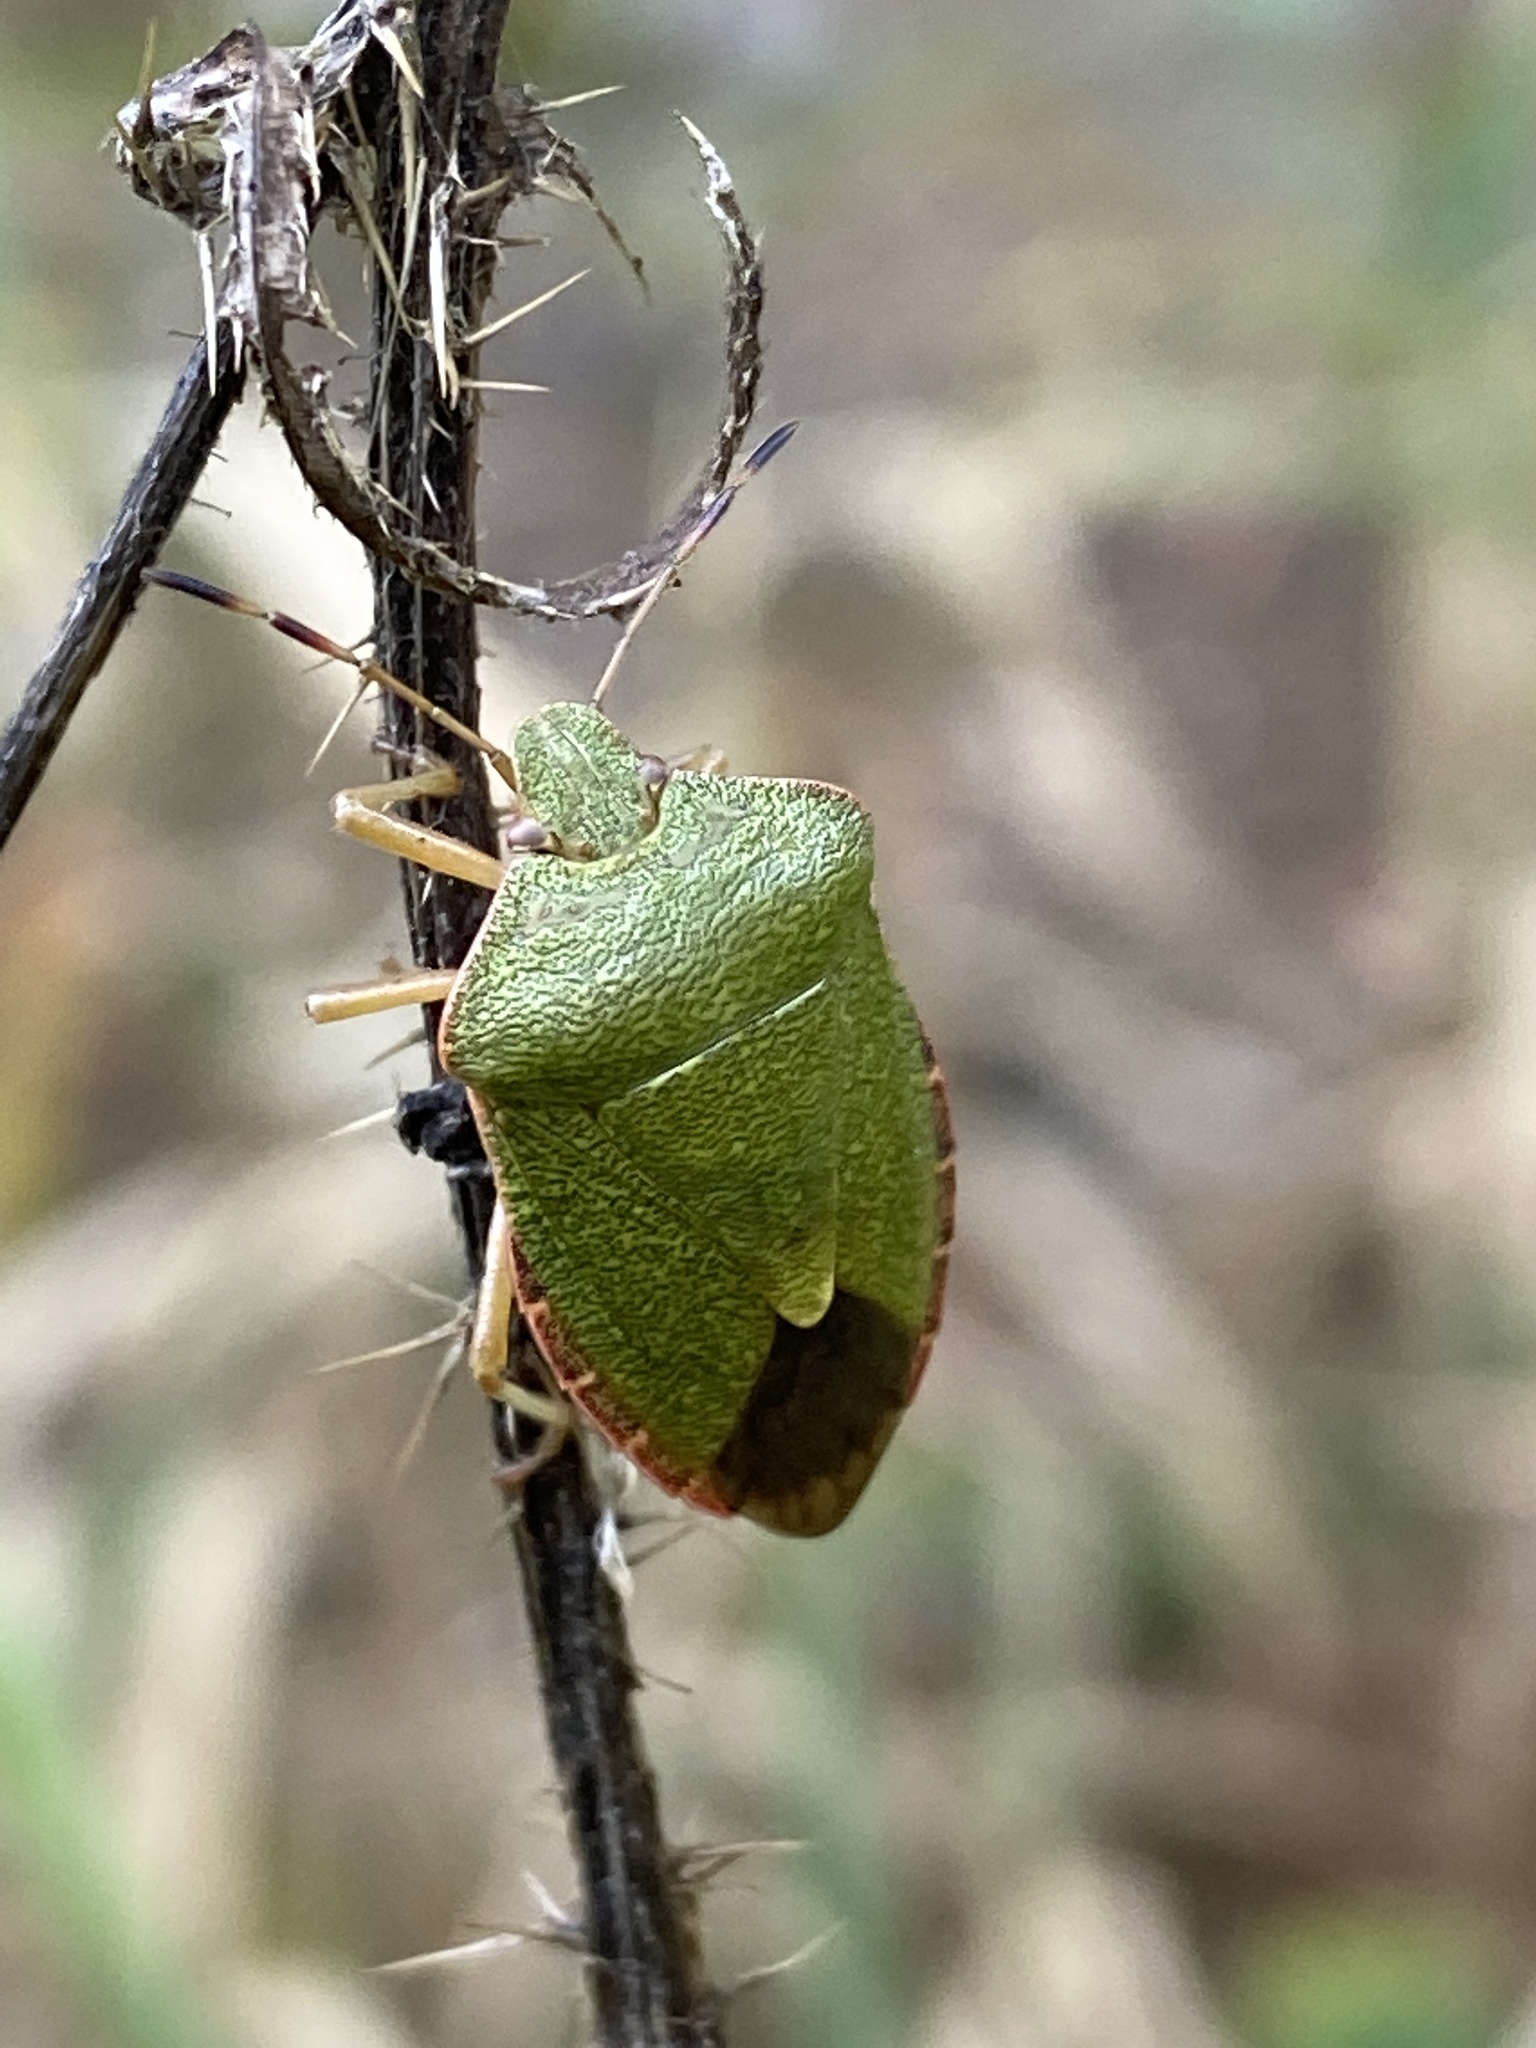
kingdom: Animalia
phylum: Arthropoda
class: Insecta
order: Hemiptera
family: Pentatomidae
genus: Palomena
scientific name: Palomena prasina
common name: Green shieldbug
